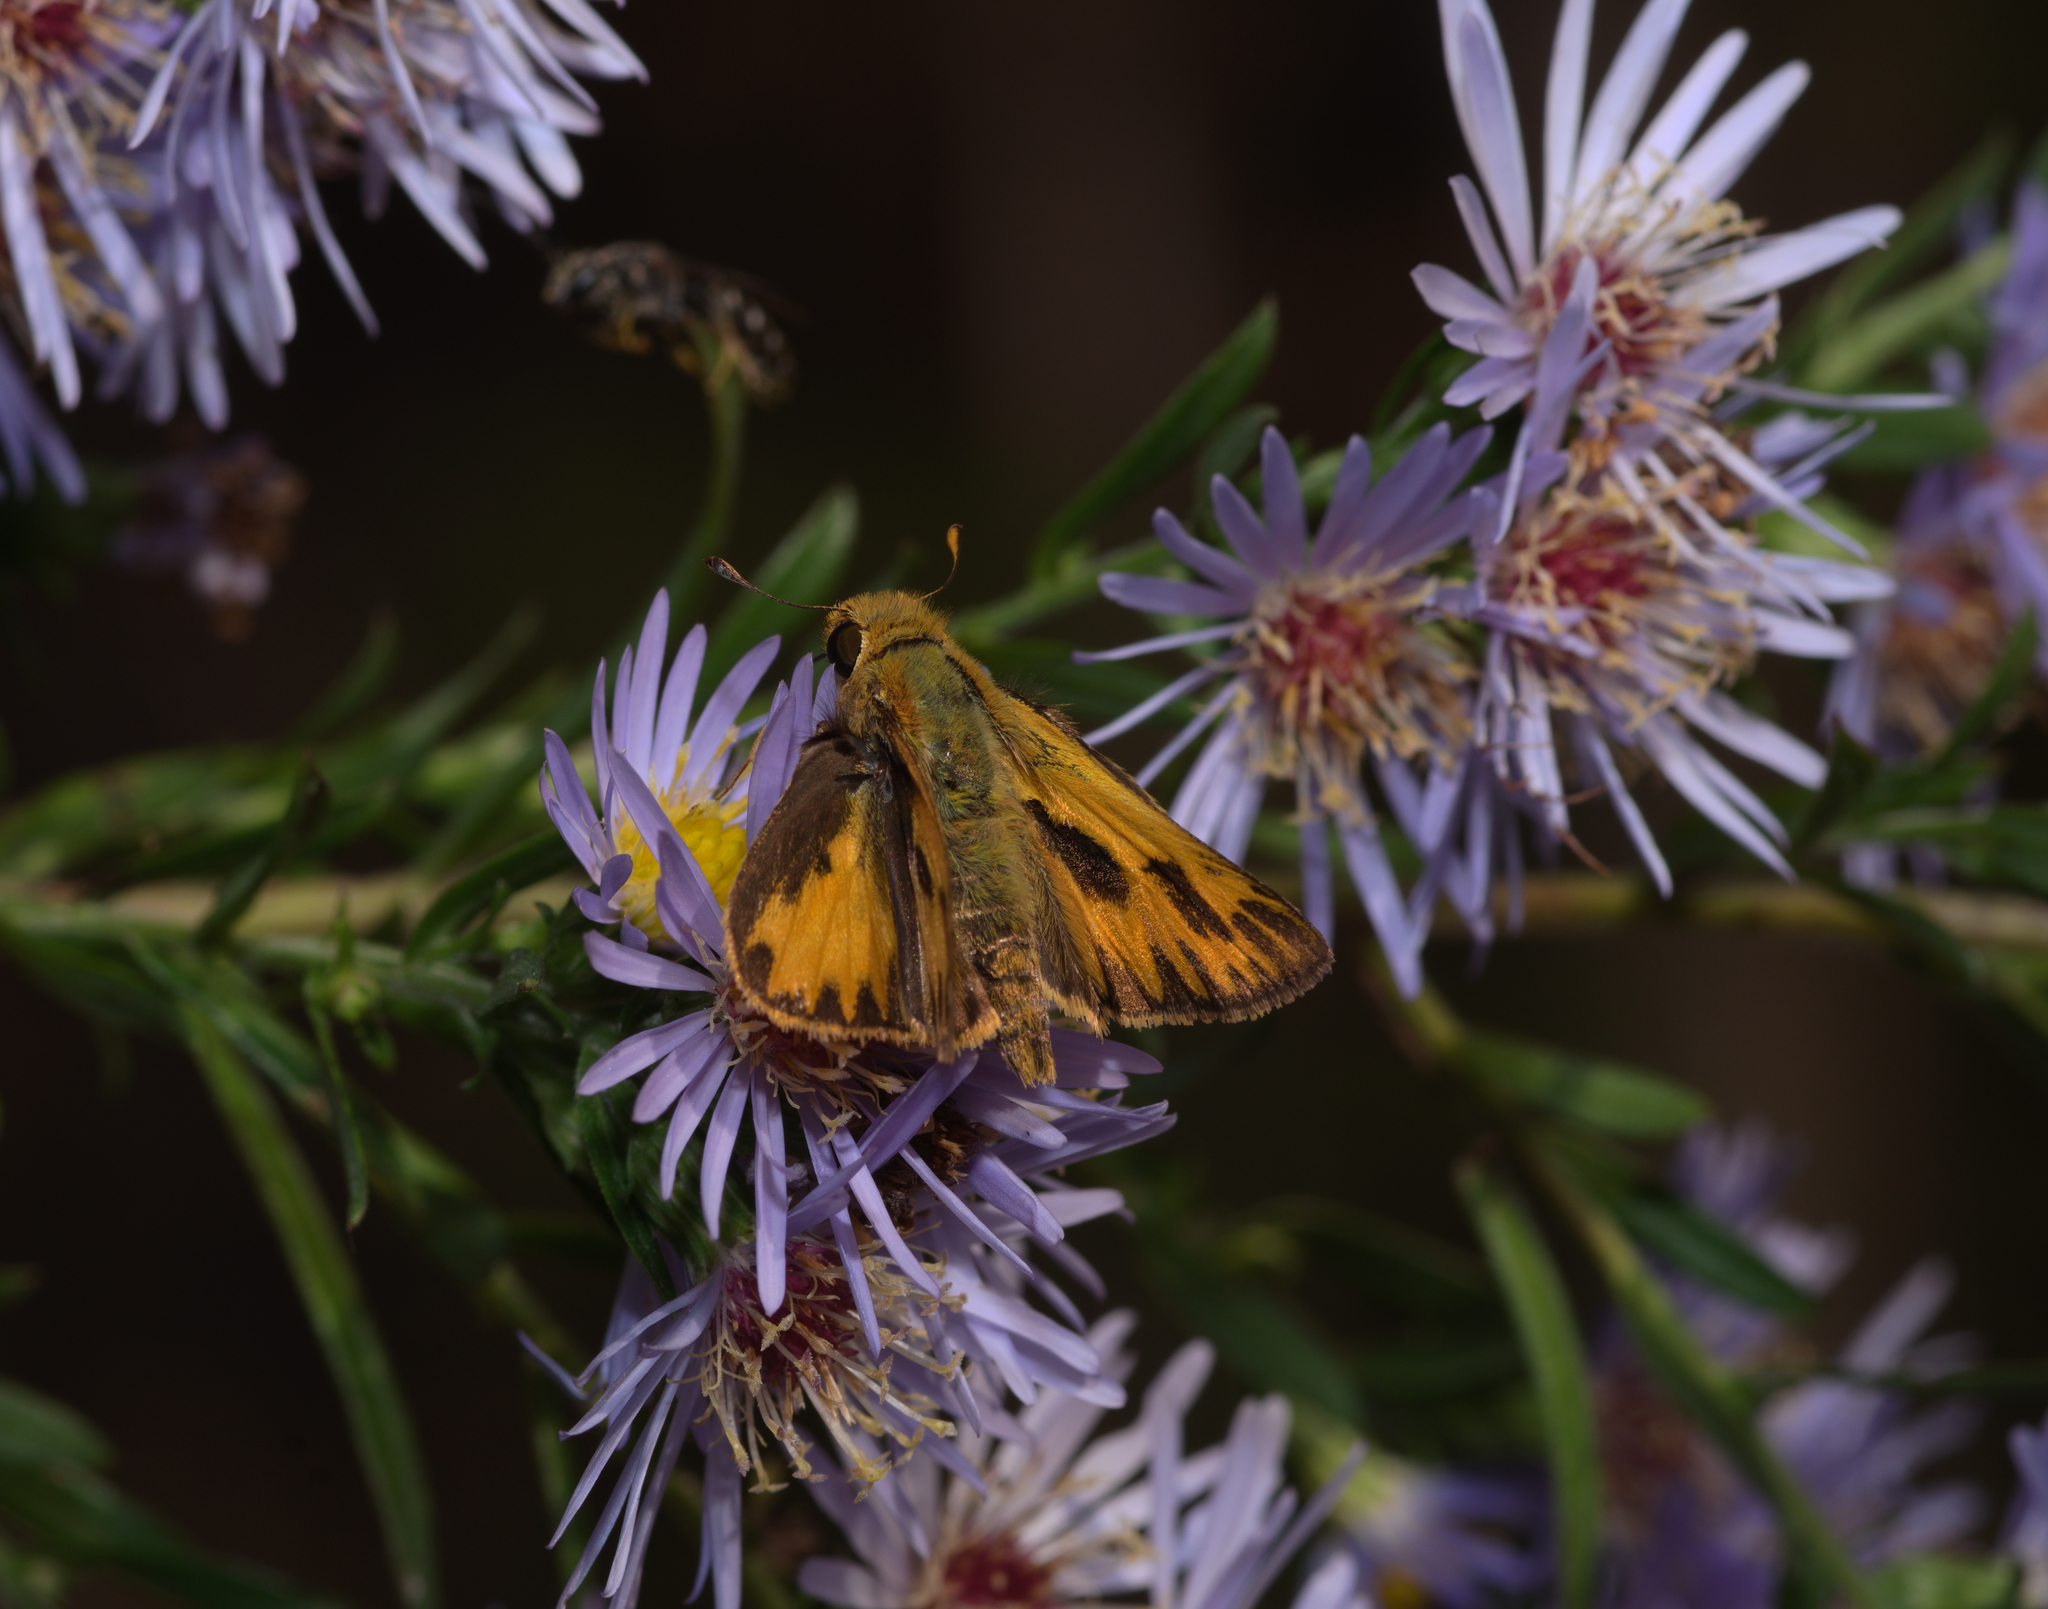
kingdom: Animalia
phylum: Arthropoda
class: Insecta
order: Lepidoptera
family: Hesperiidae
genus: Hylephila
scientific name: Hylephila phyleus
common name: Fiery skipper
